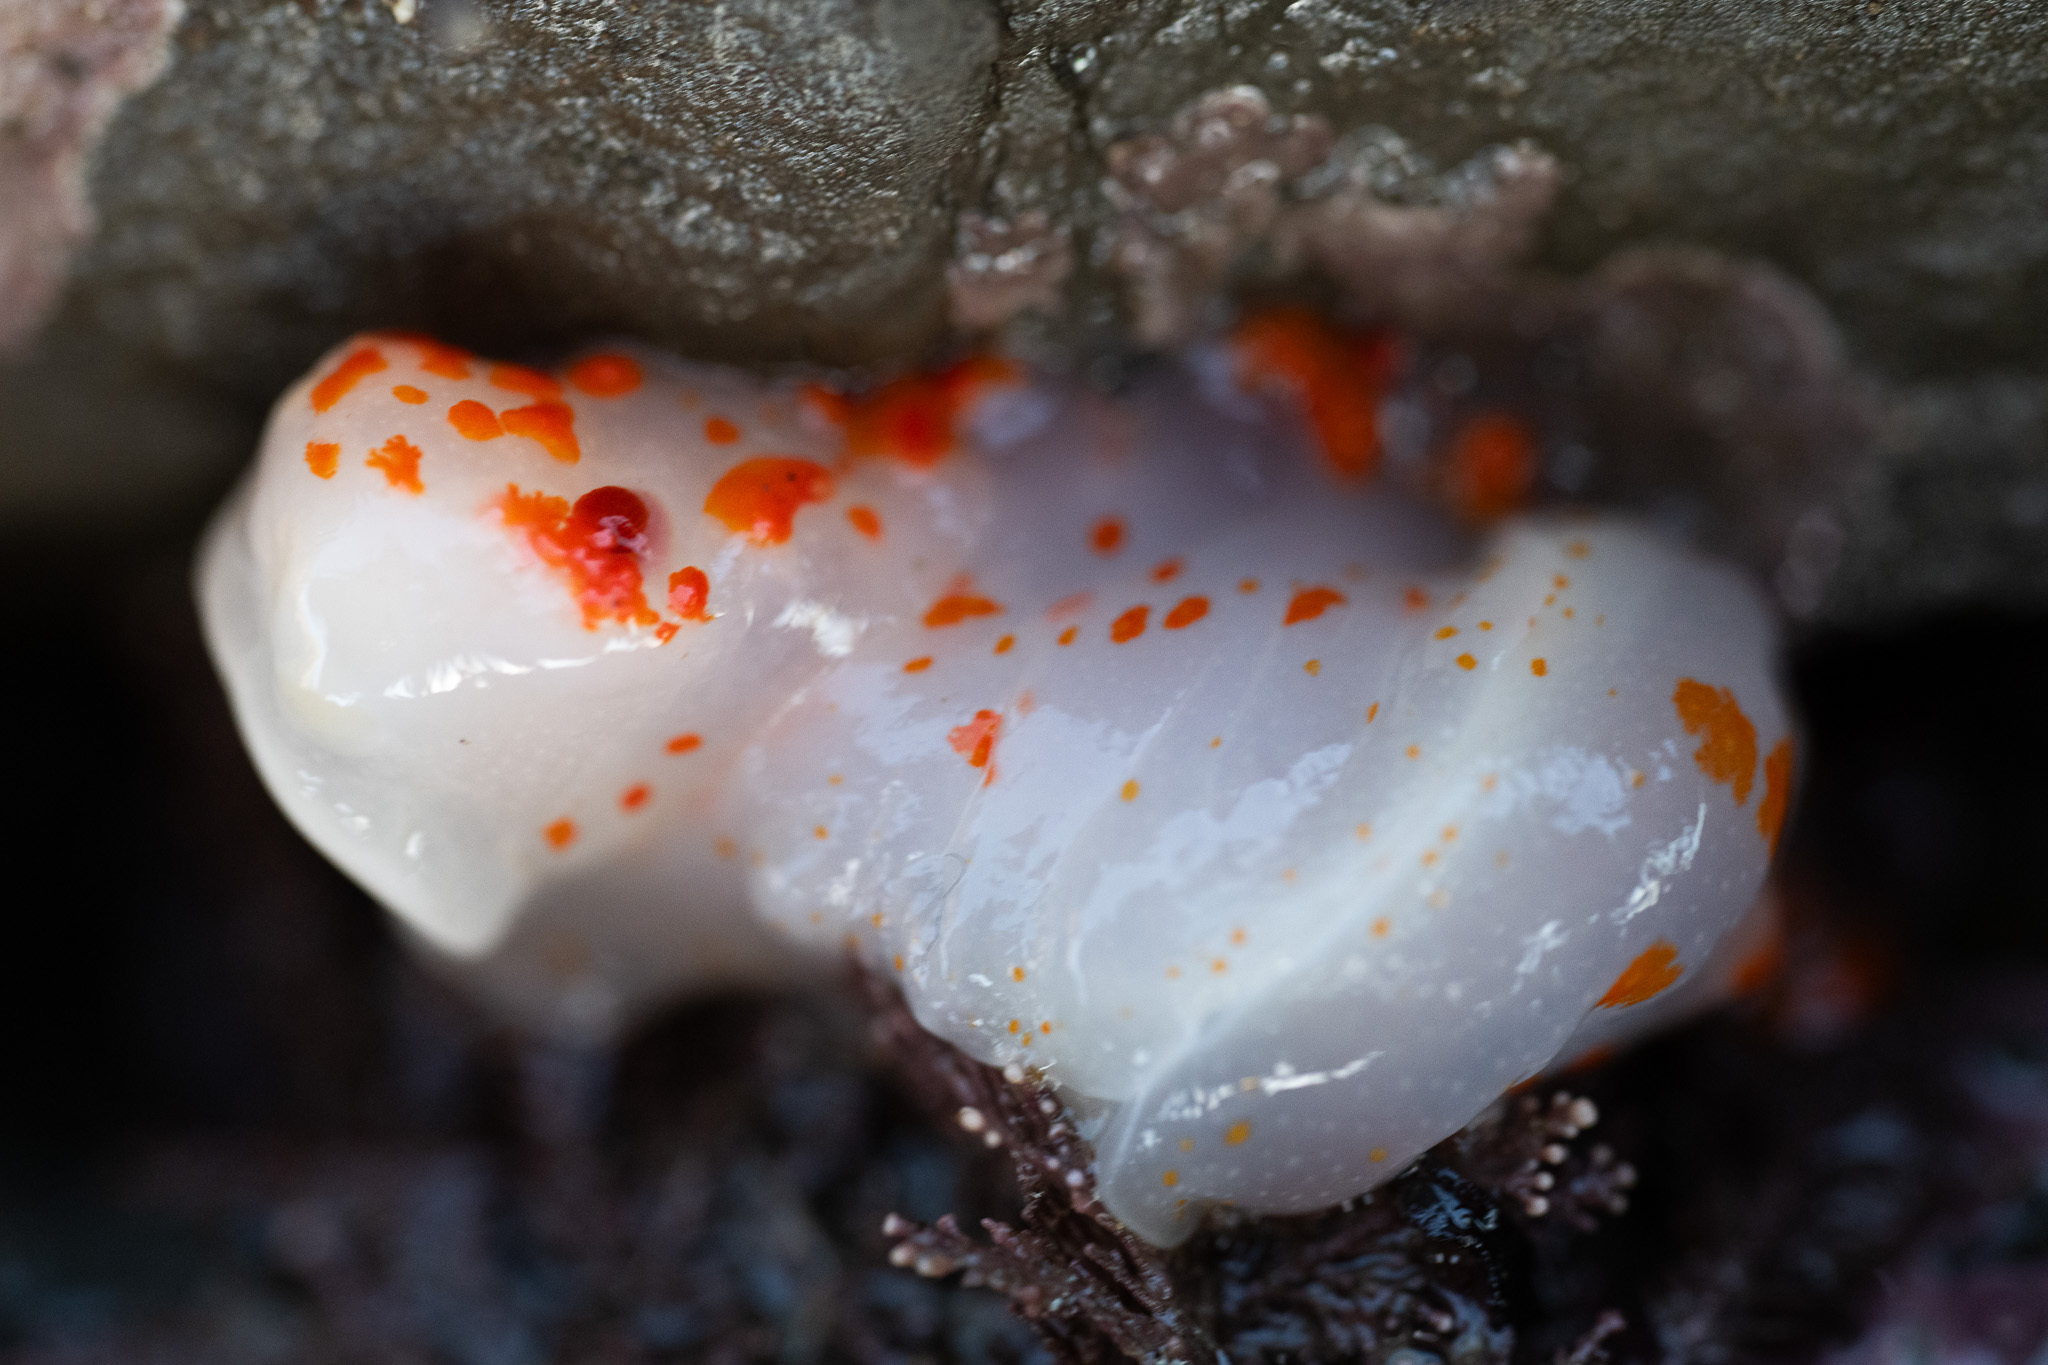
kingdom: Animalia
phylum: Mollusca
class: Gastropoda
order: Nudibranchia
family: Polyceridae
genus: Triopha
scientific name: Triopha catalinae
